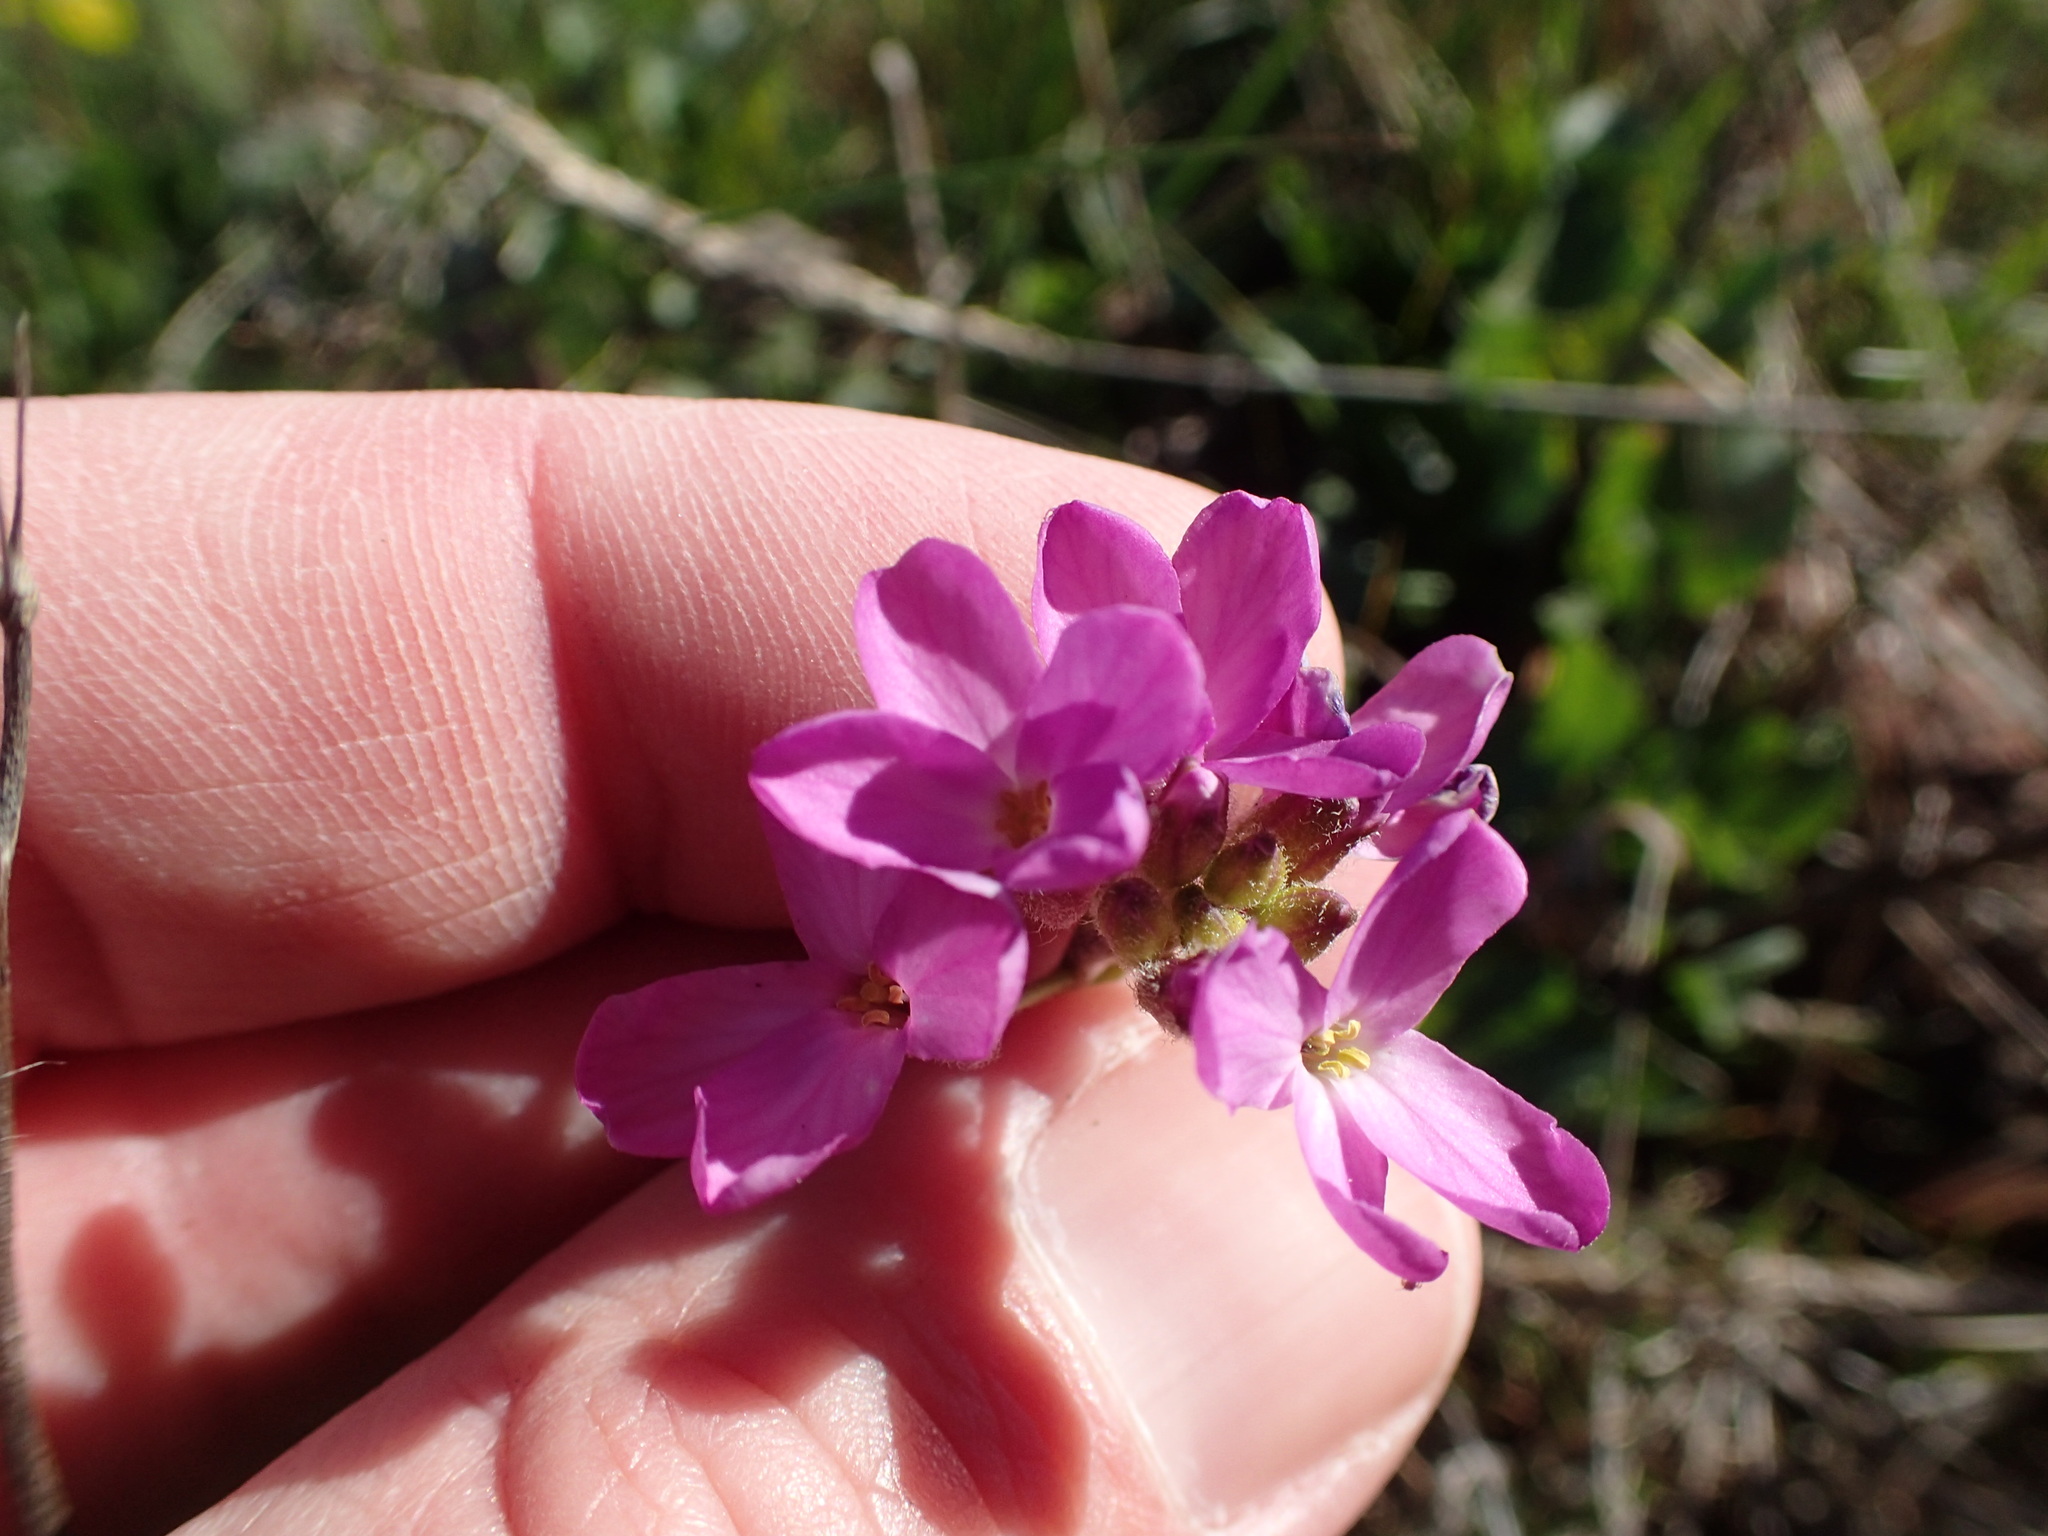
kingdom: Plantae
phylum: Tracheophyta
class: Magnoliopsida
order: Brassicales
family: Brassicaceae
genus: Arabis
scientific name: Arabis blepharophylla
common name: Rose rockcress
